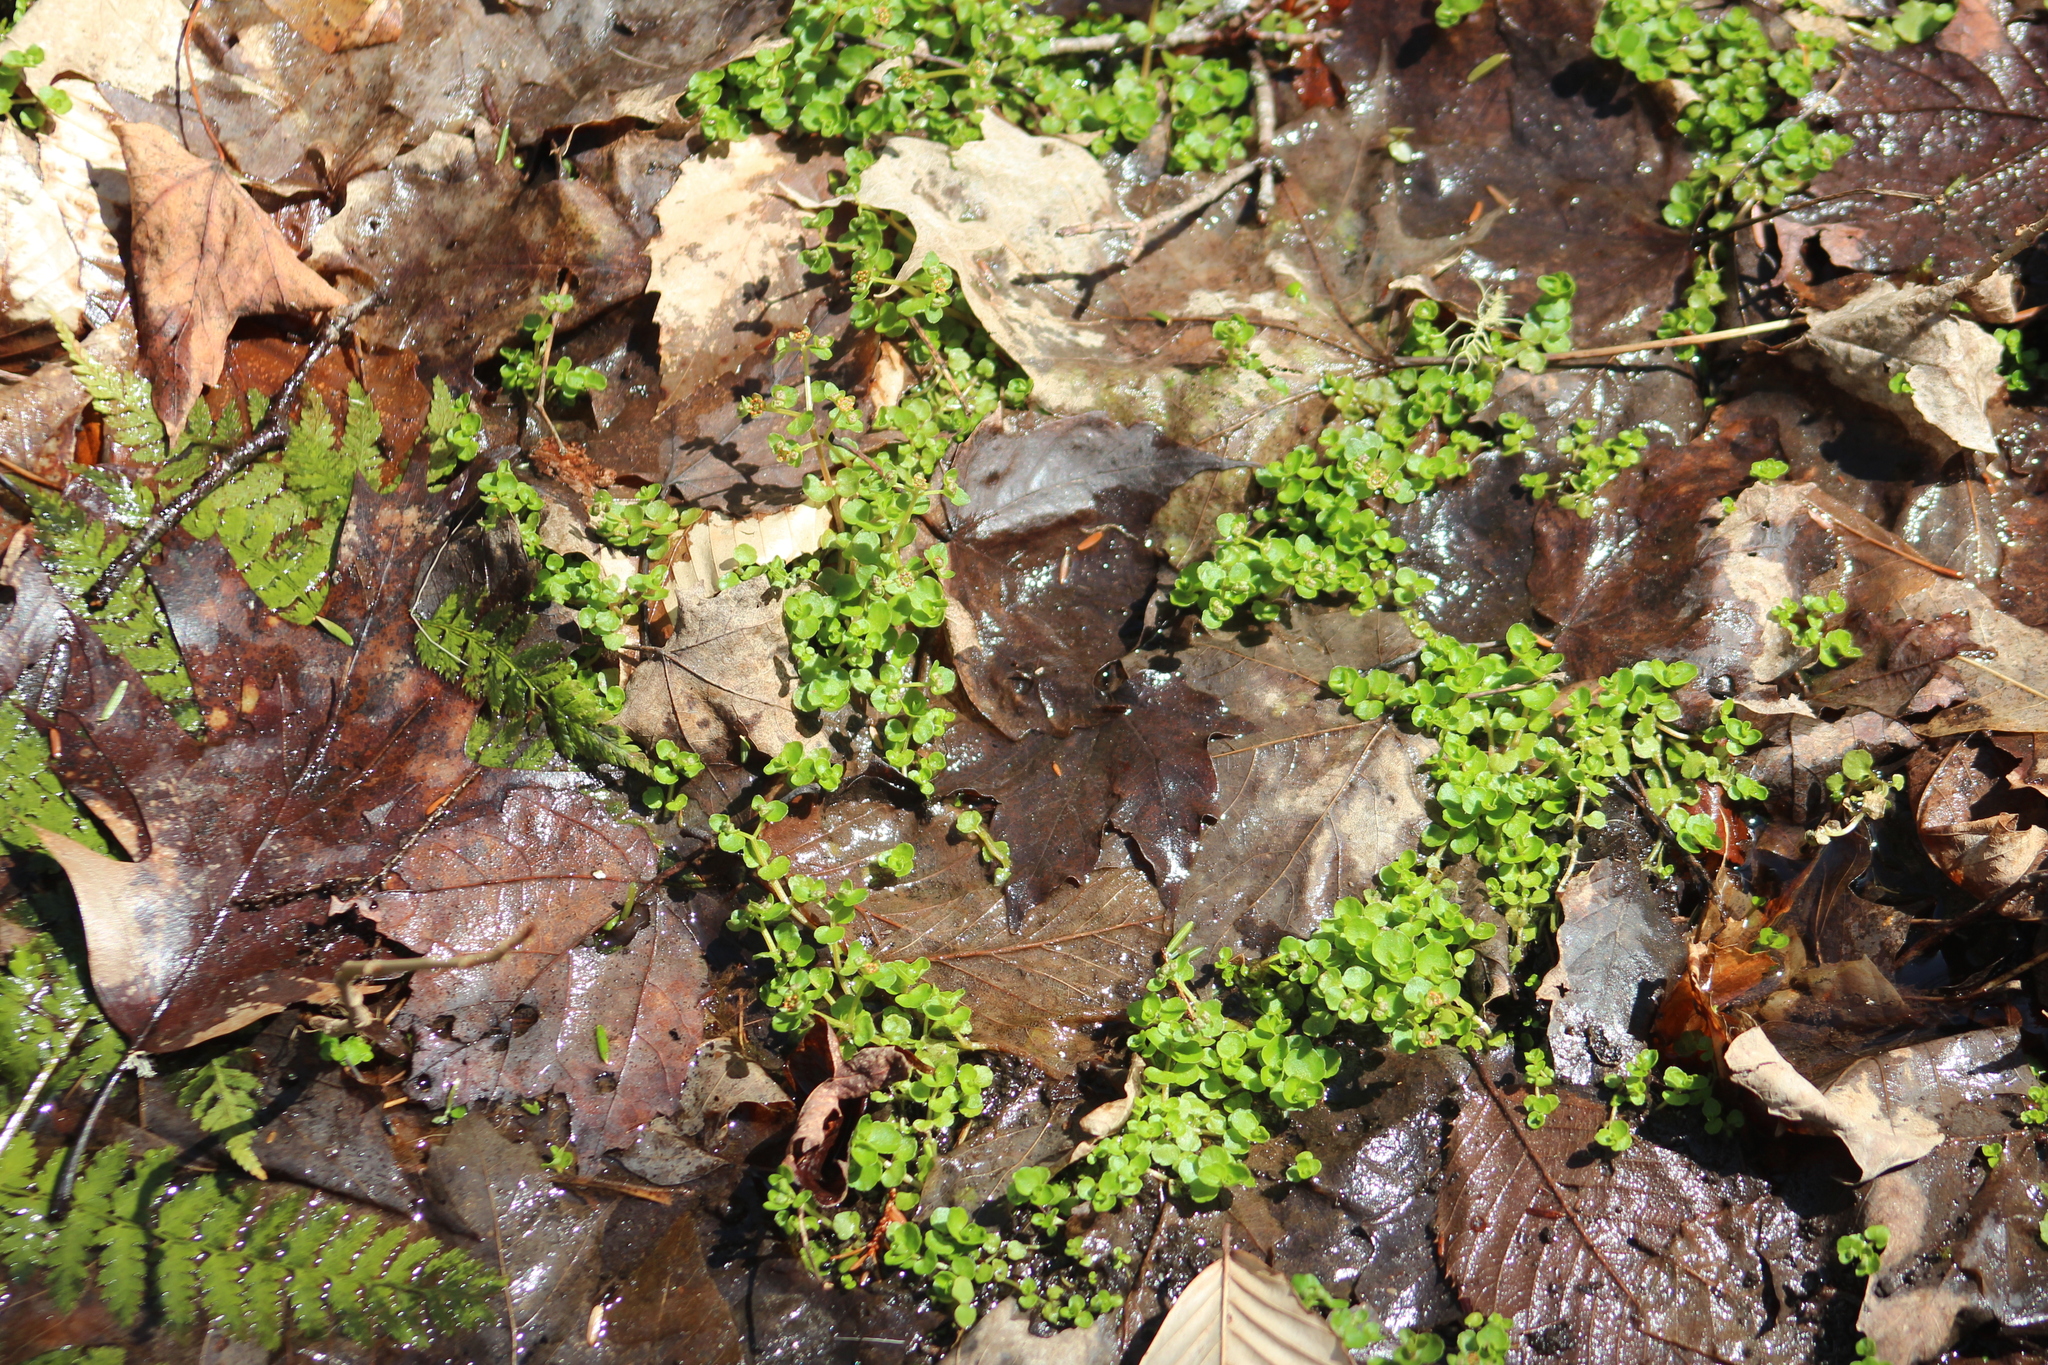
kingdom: Plantae
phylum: Tracheophyta
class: Magnoliopsida
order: Saxifragales
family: Saxifragaceae
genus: Chrysosplenium
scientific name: Chrysosplenium americanum
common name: American golden-saxifrage
